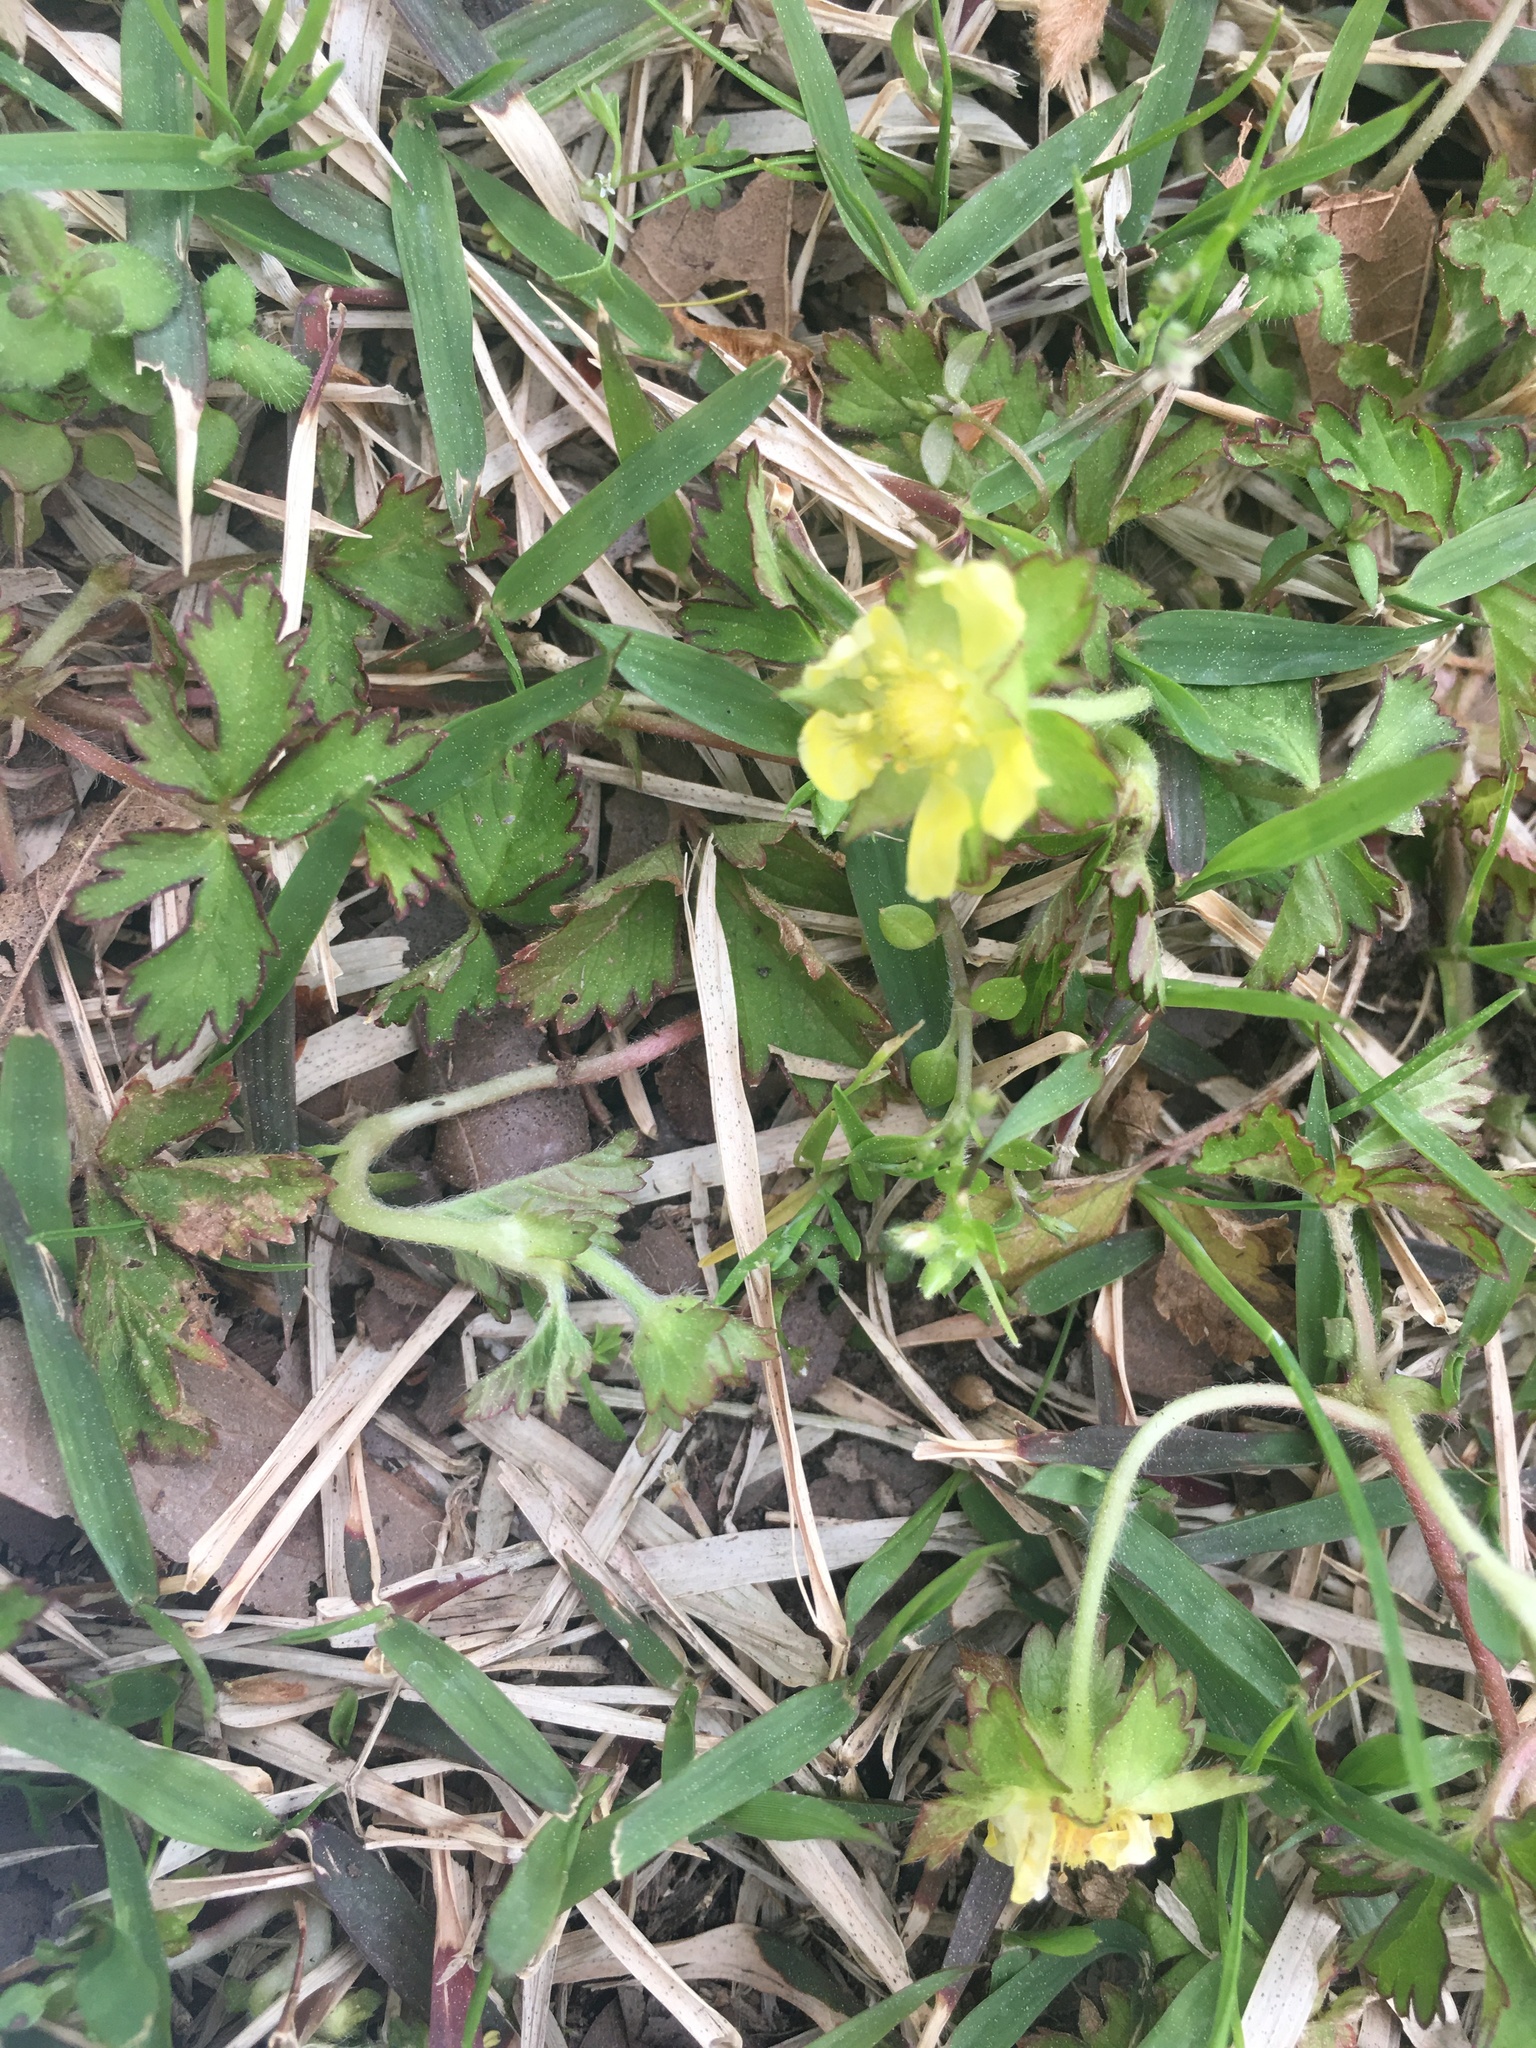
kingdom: Plantae
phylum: Tracheophyta
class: Magnoliopsida
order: Rosales
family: Rosaceae
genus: Potentilla
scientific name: Potentilla indica
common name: Yellow-flowered strawberry
